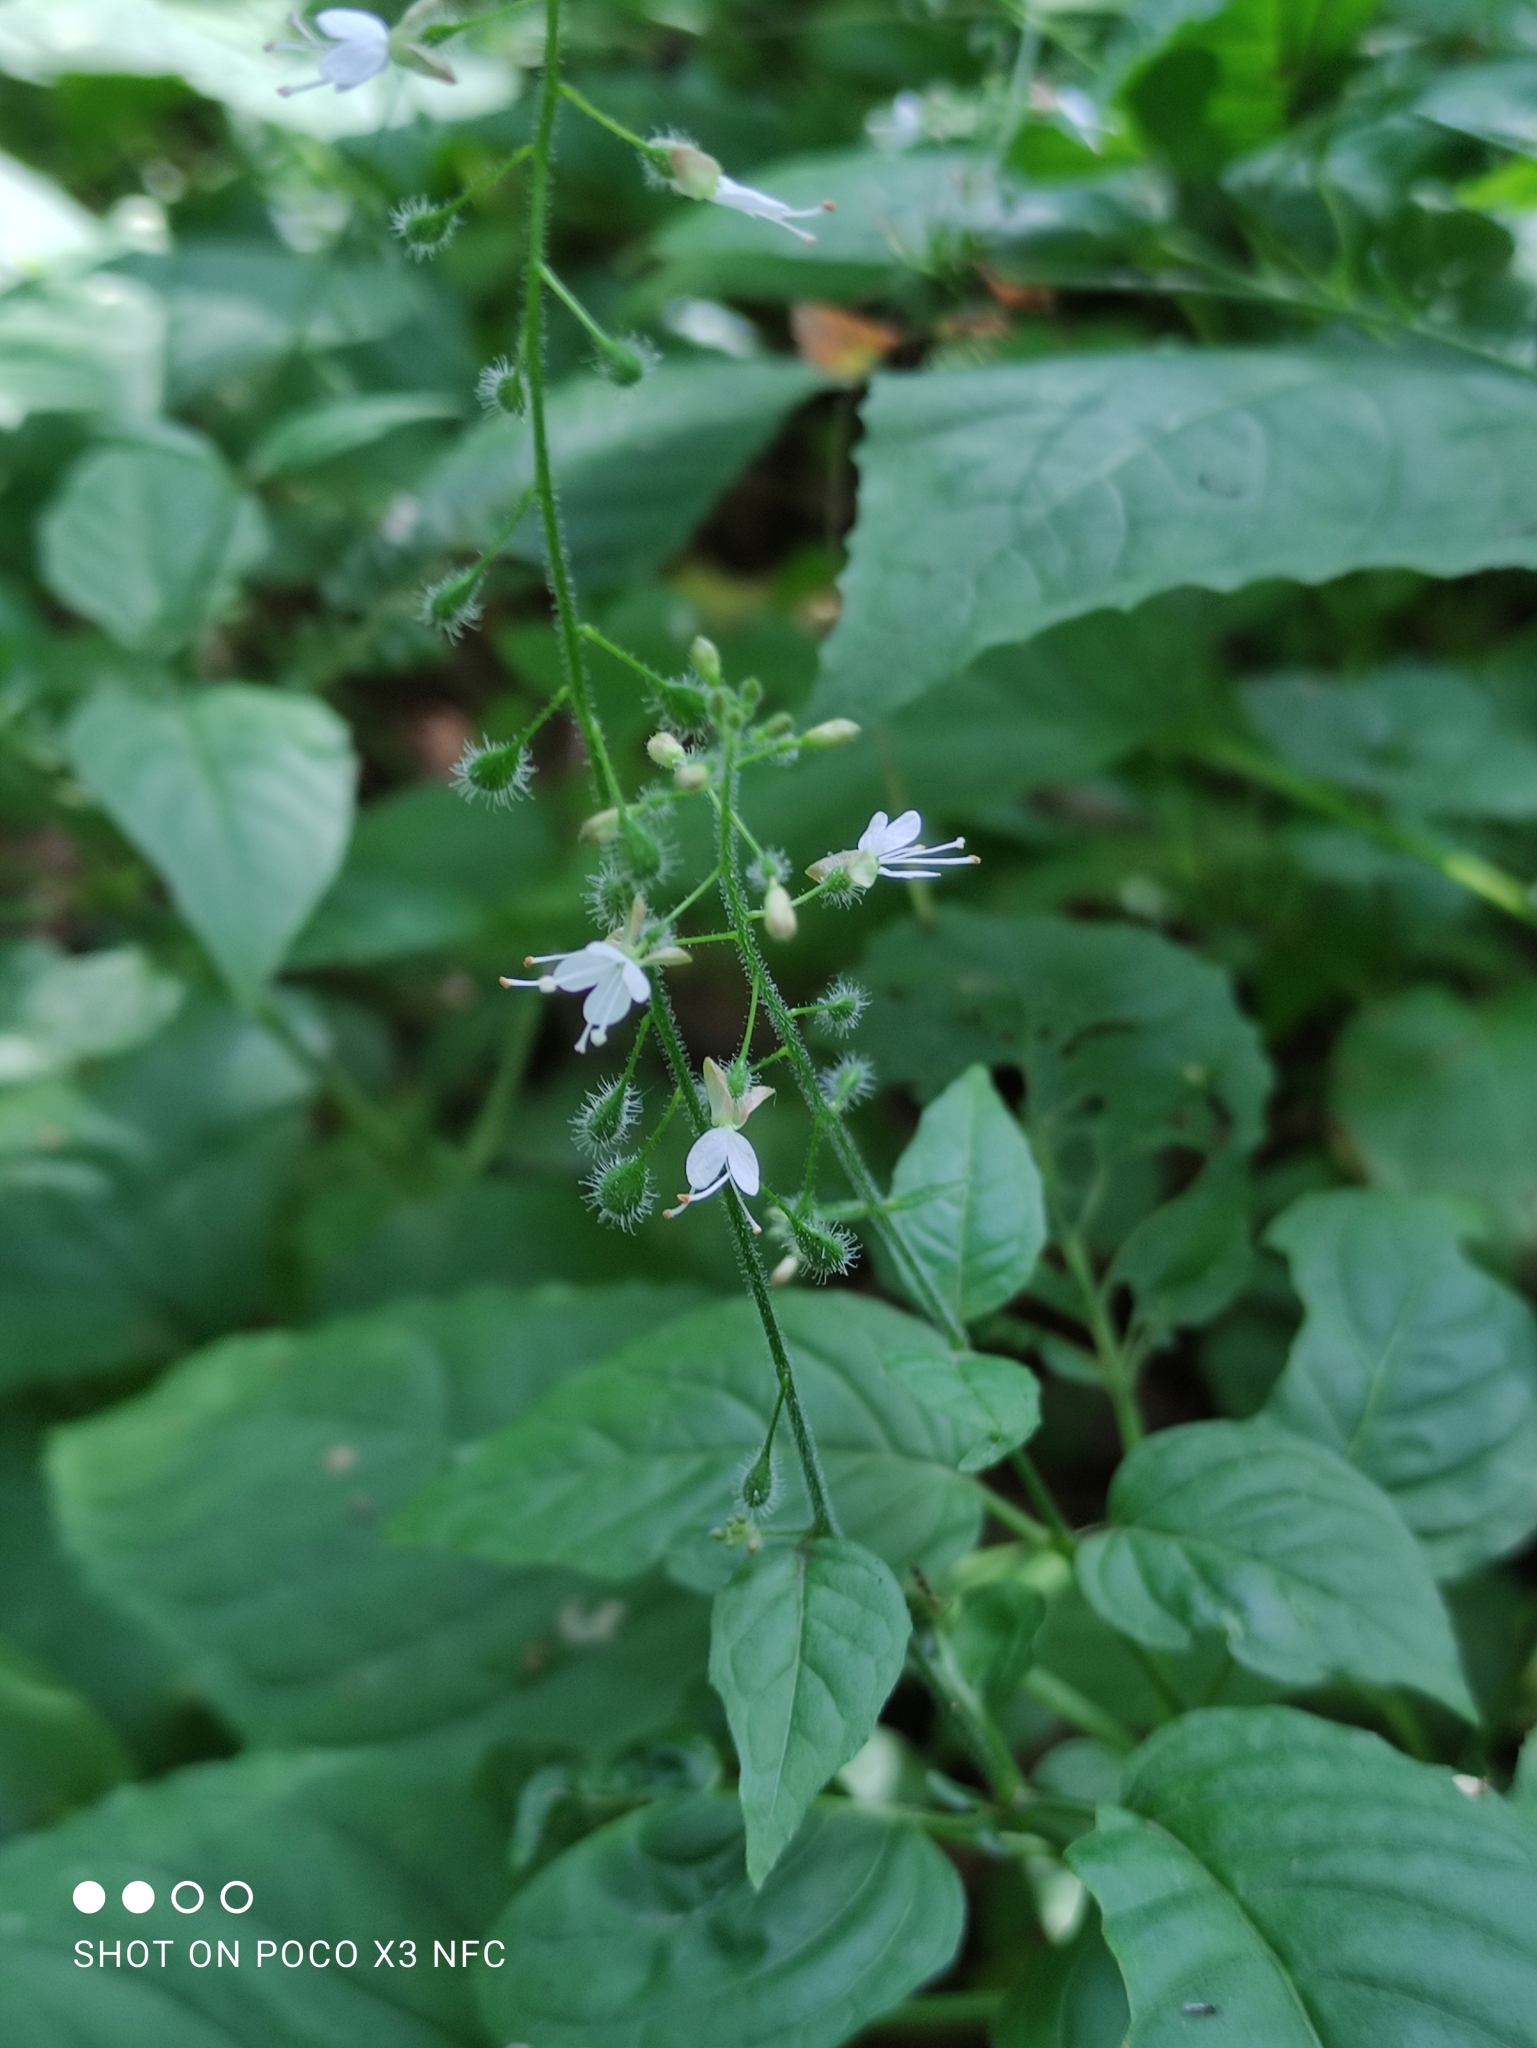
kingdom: Plantae
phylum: Tracheophyta
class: Magnoliopsida
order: Myrtales
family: Onagraceae
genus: Circaea
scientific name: Circaea lutetiana
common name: Enchanter's-nightshade
